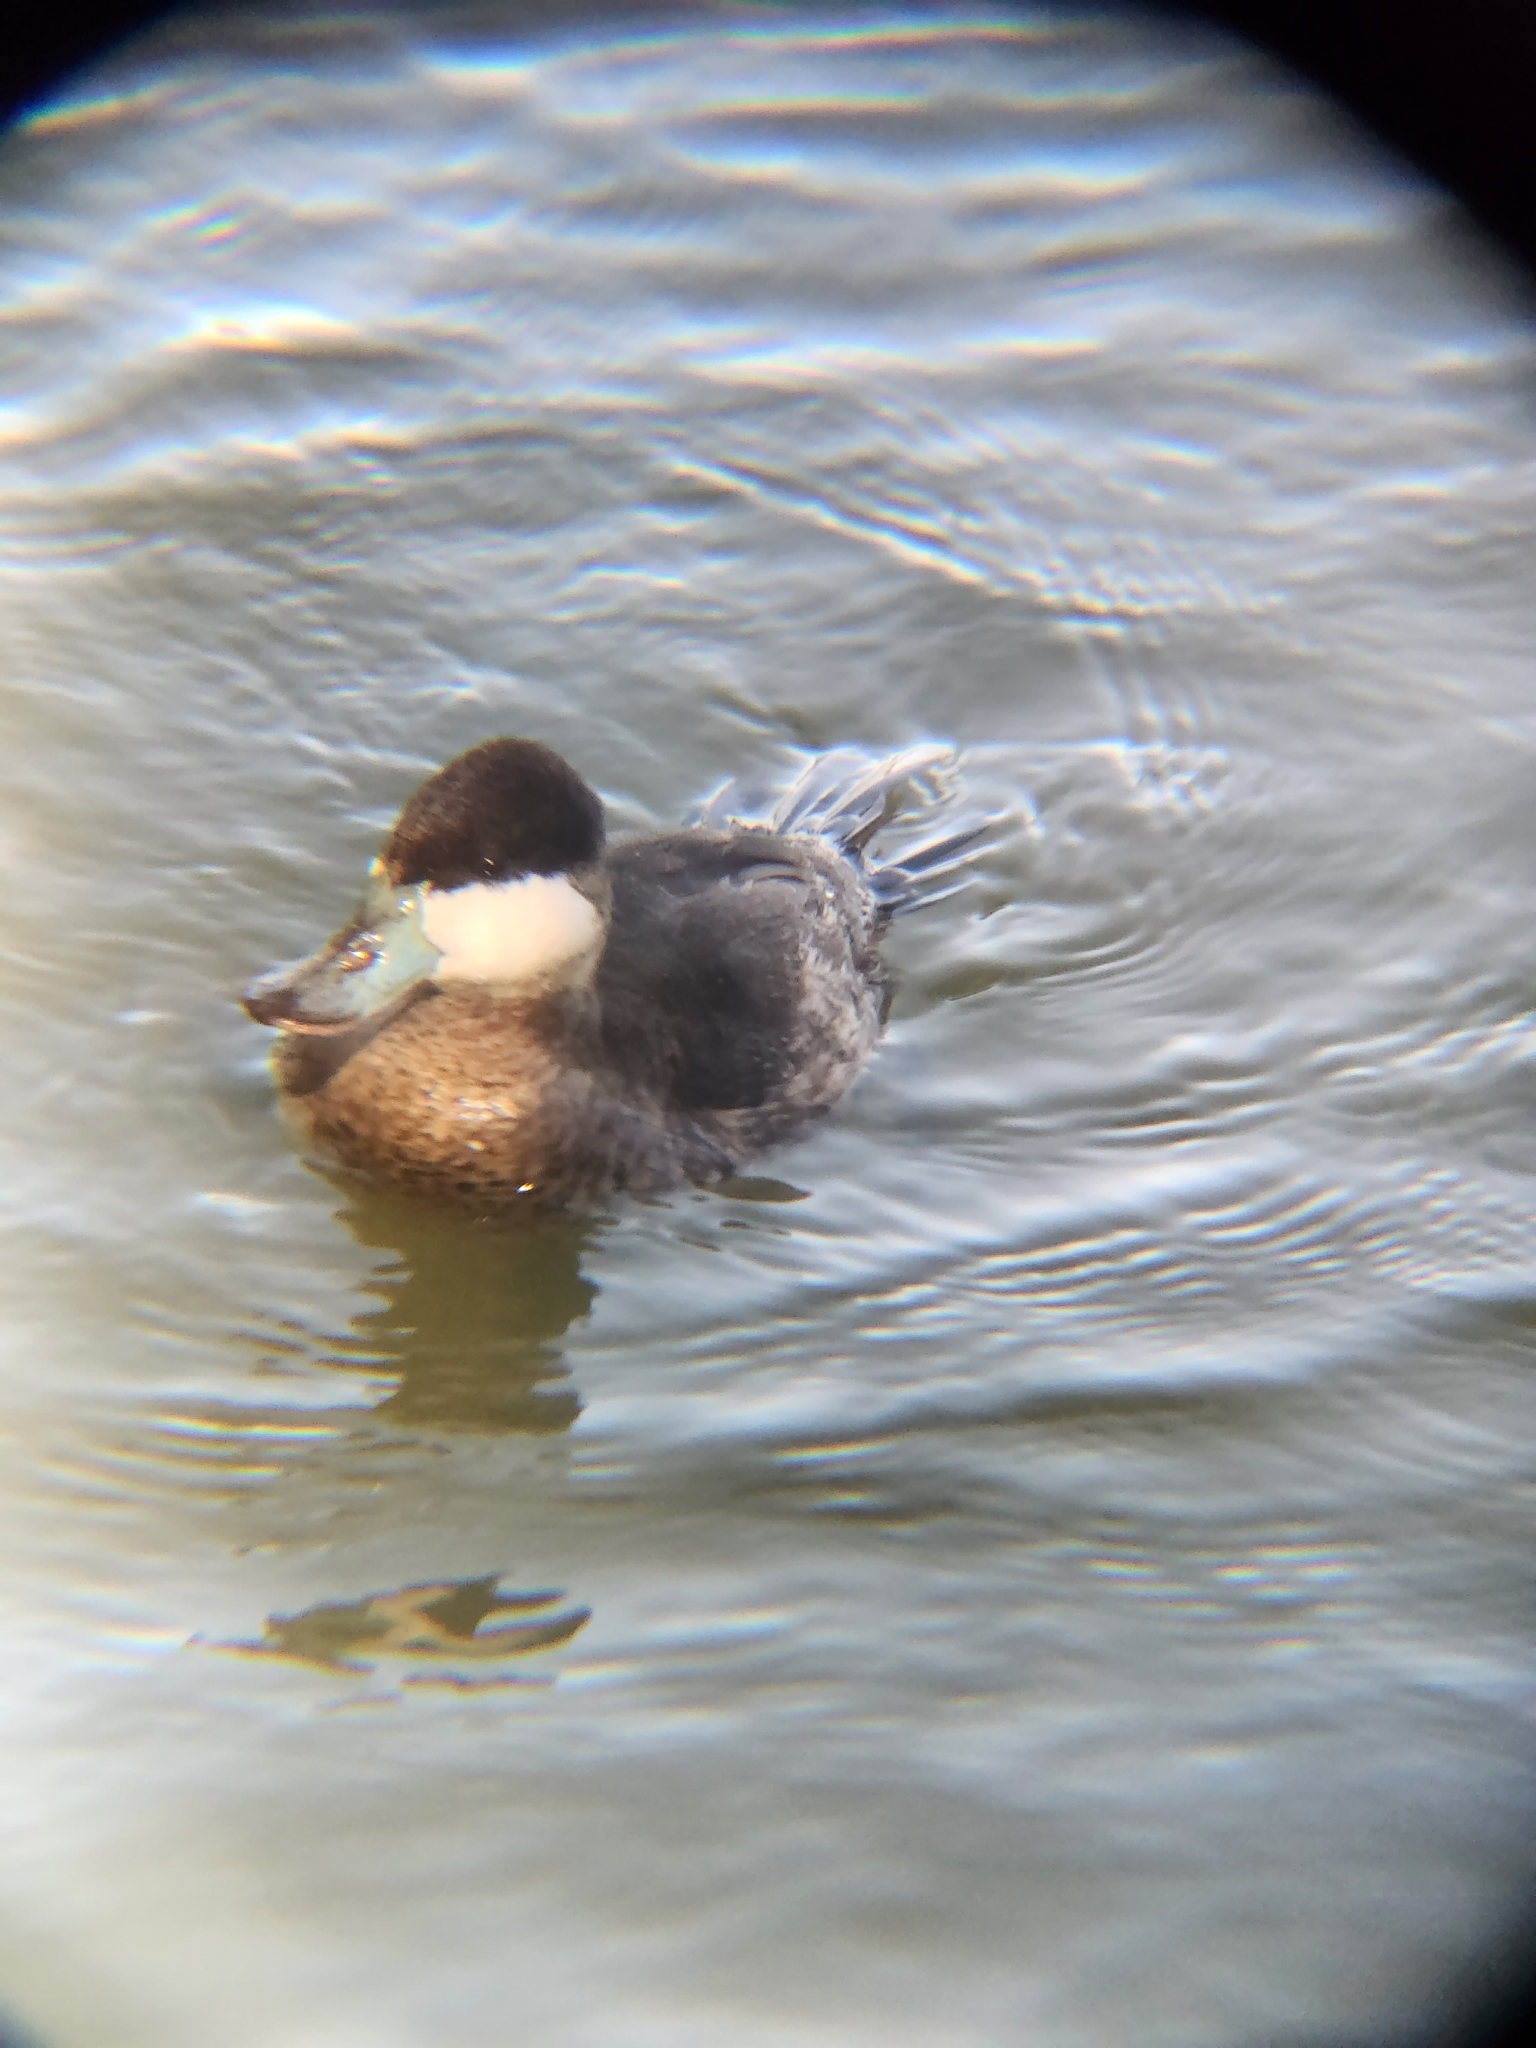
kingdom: Animalia
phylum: Chordata
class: Aves
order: Anseriformes
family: Anatidae
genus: Oxyura
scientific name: Oxyura jamaicensis
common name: Ruddy duck
